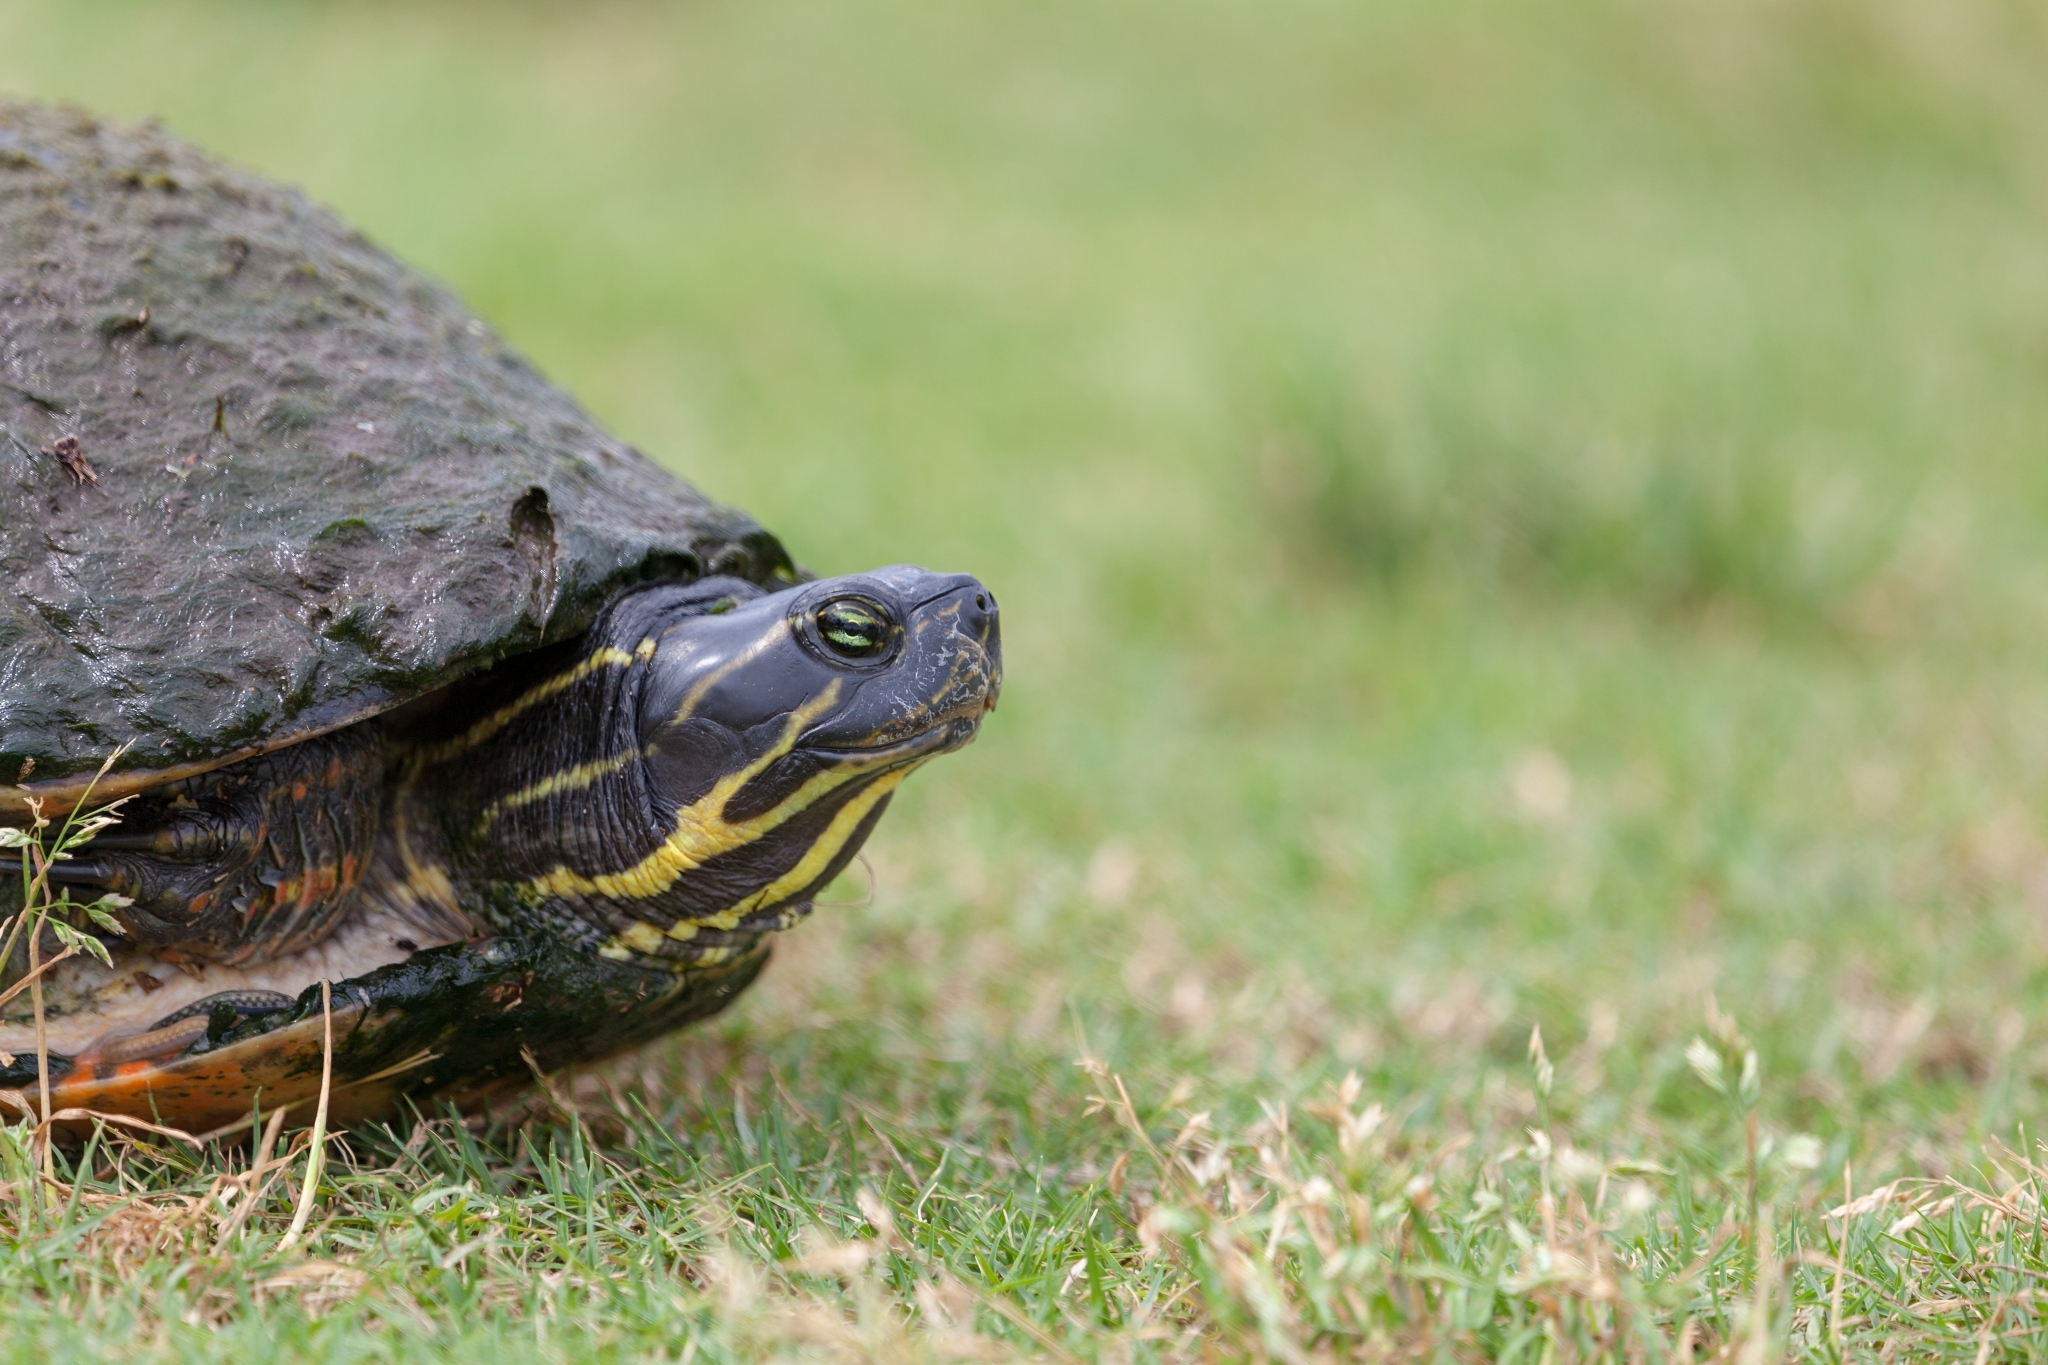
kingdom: Animalia
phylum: Chordata
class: Testudines
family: Emydidae
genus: Pseudemys
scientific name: Pseudemys nelsoni
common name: Florida red-bellied turtle
